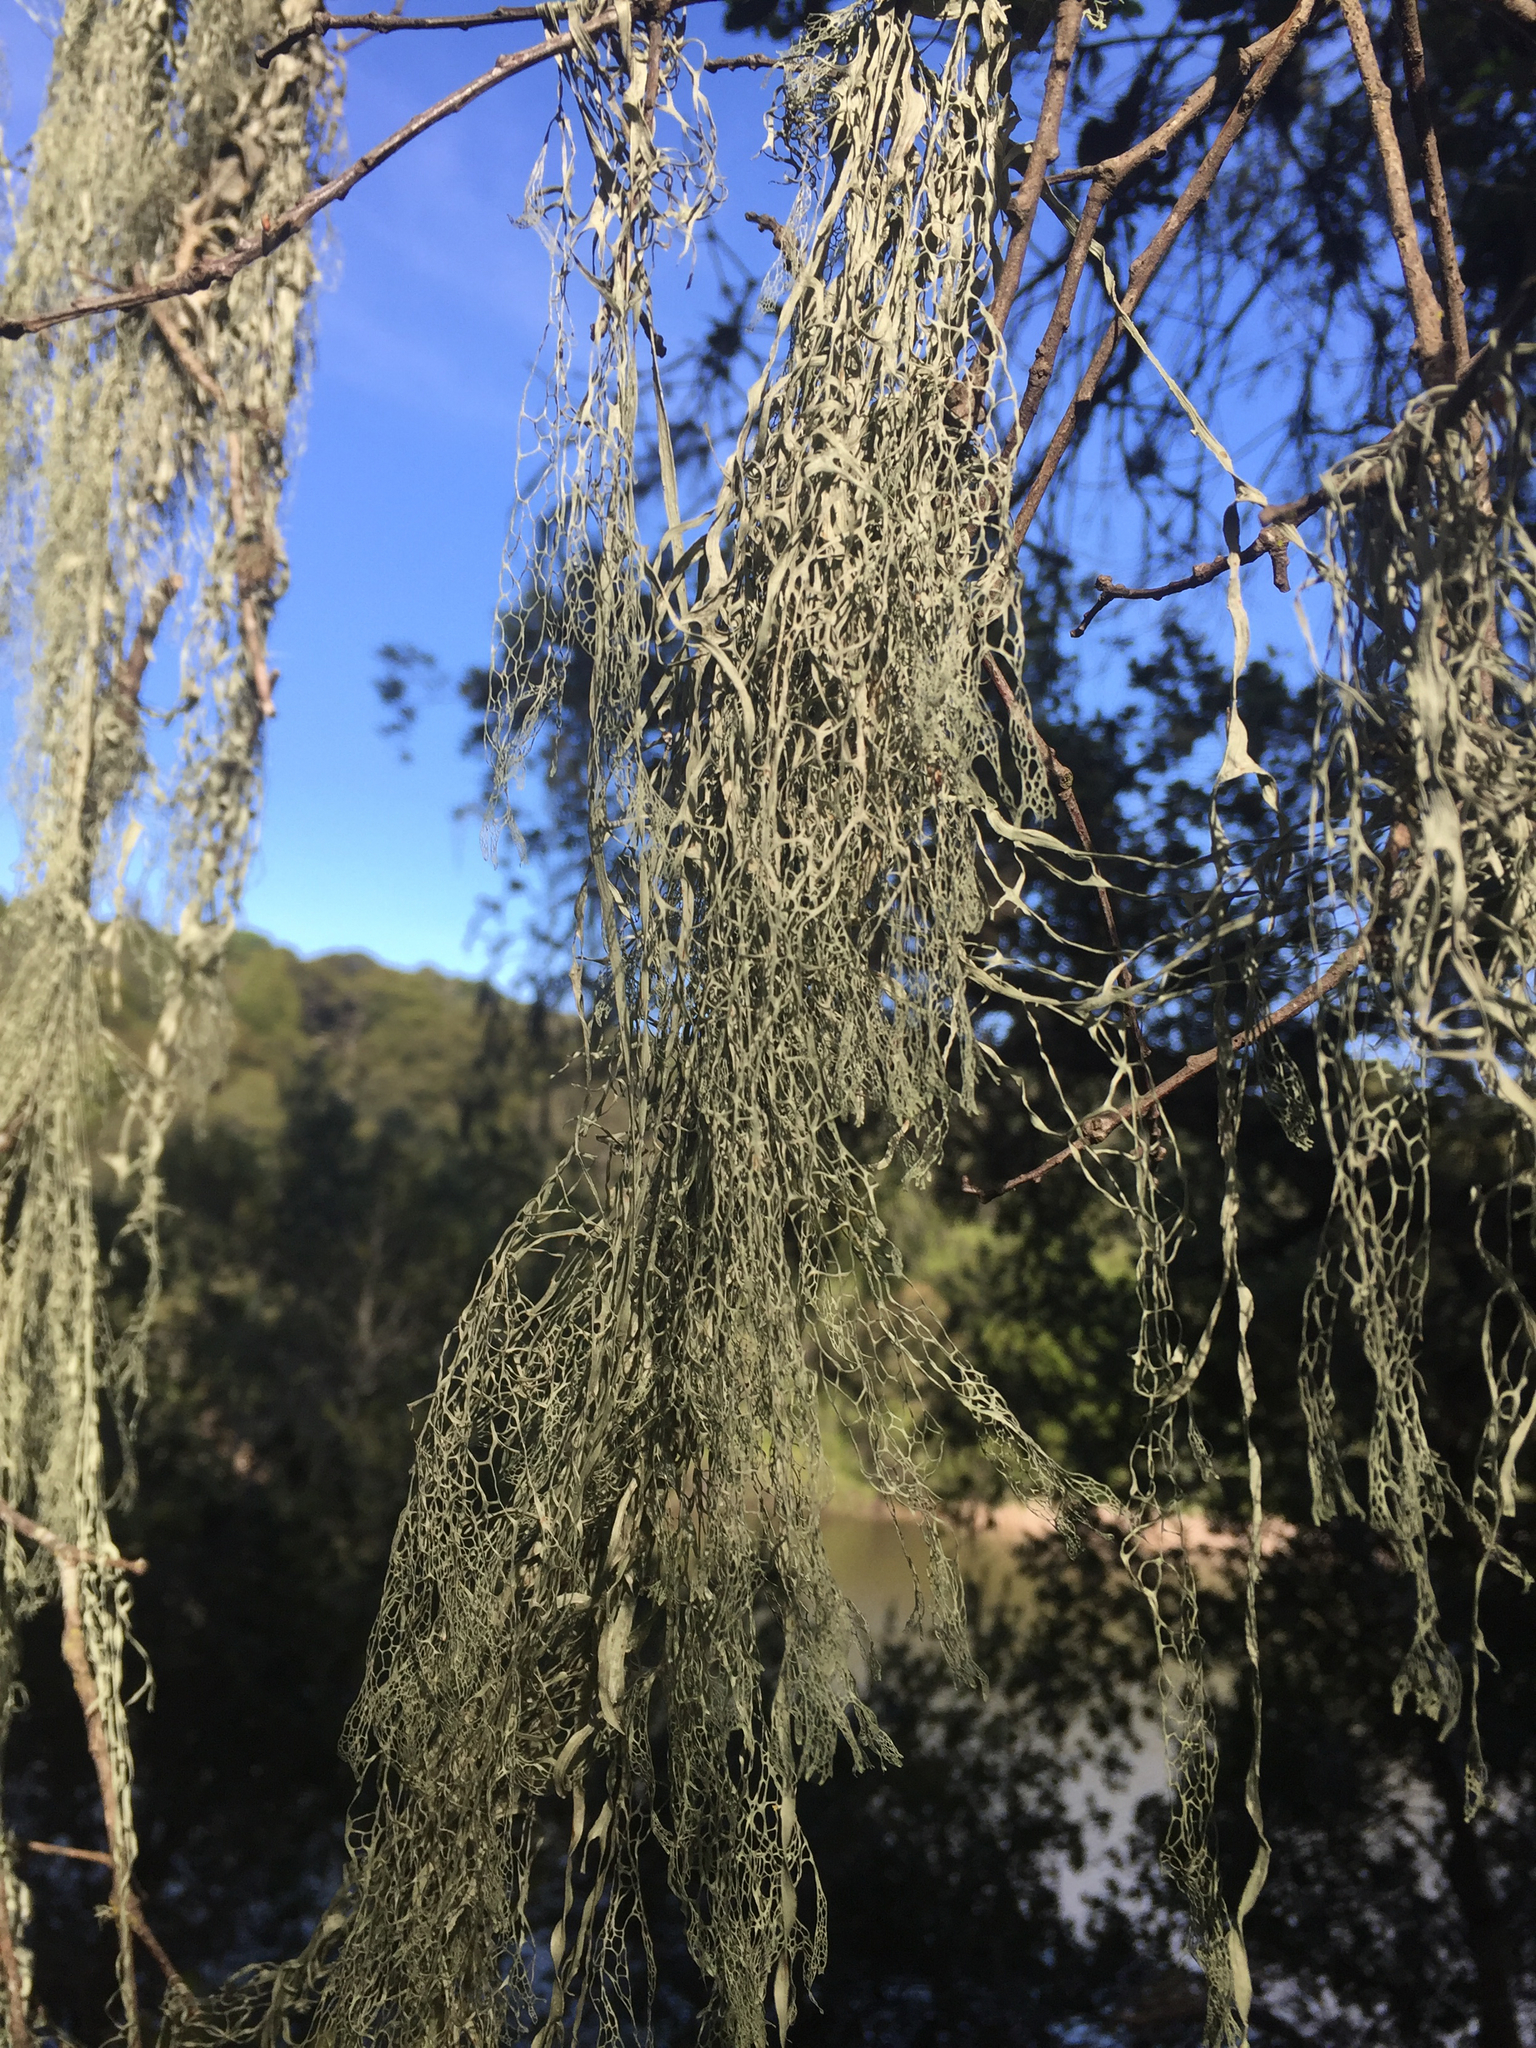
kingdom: Fungi
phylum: Ascomycota
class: Lecanoromycetes
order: Lecanorales
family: Ramalinaceae
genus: Ramalina
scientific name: Ramalina menziesii
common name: Lace lichen
